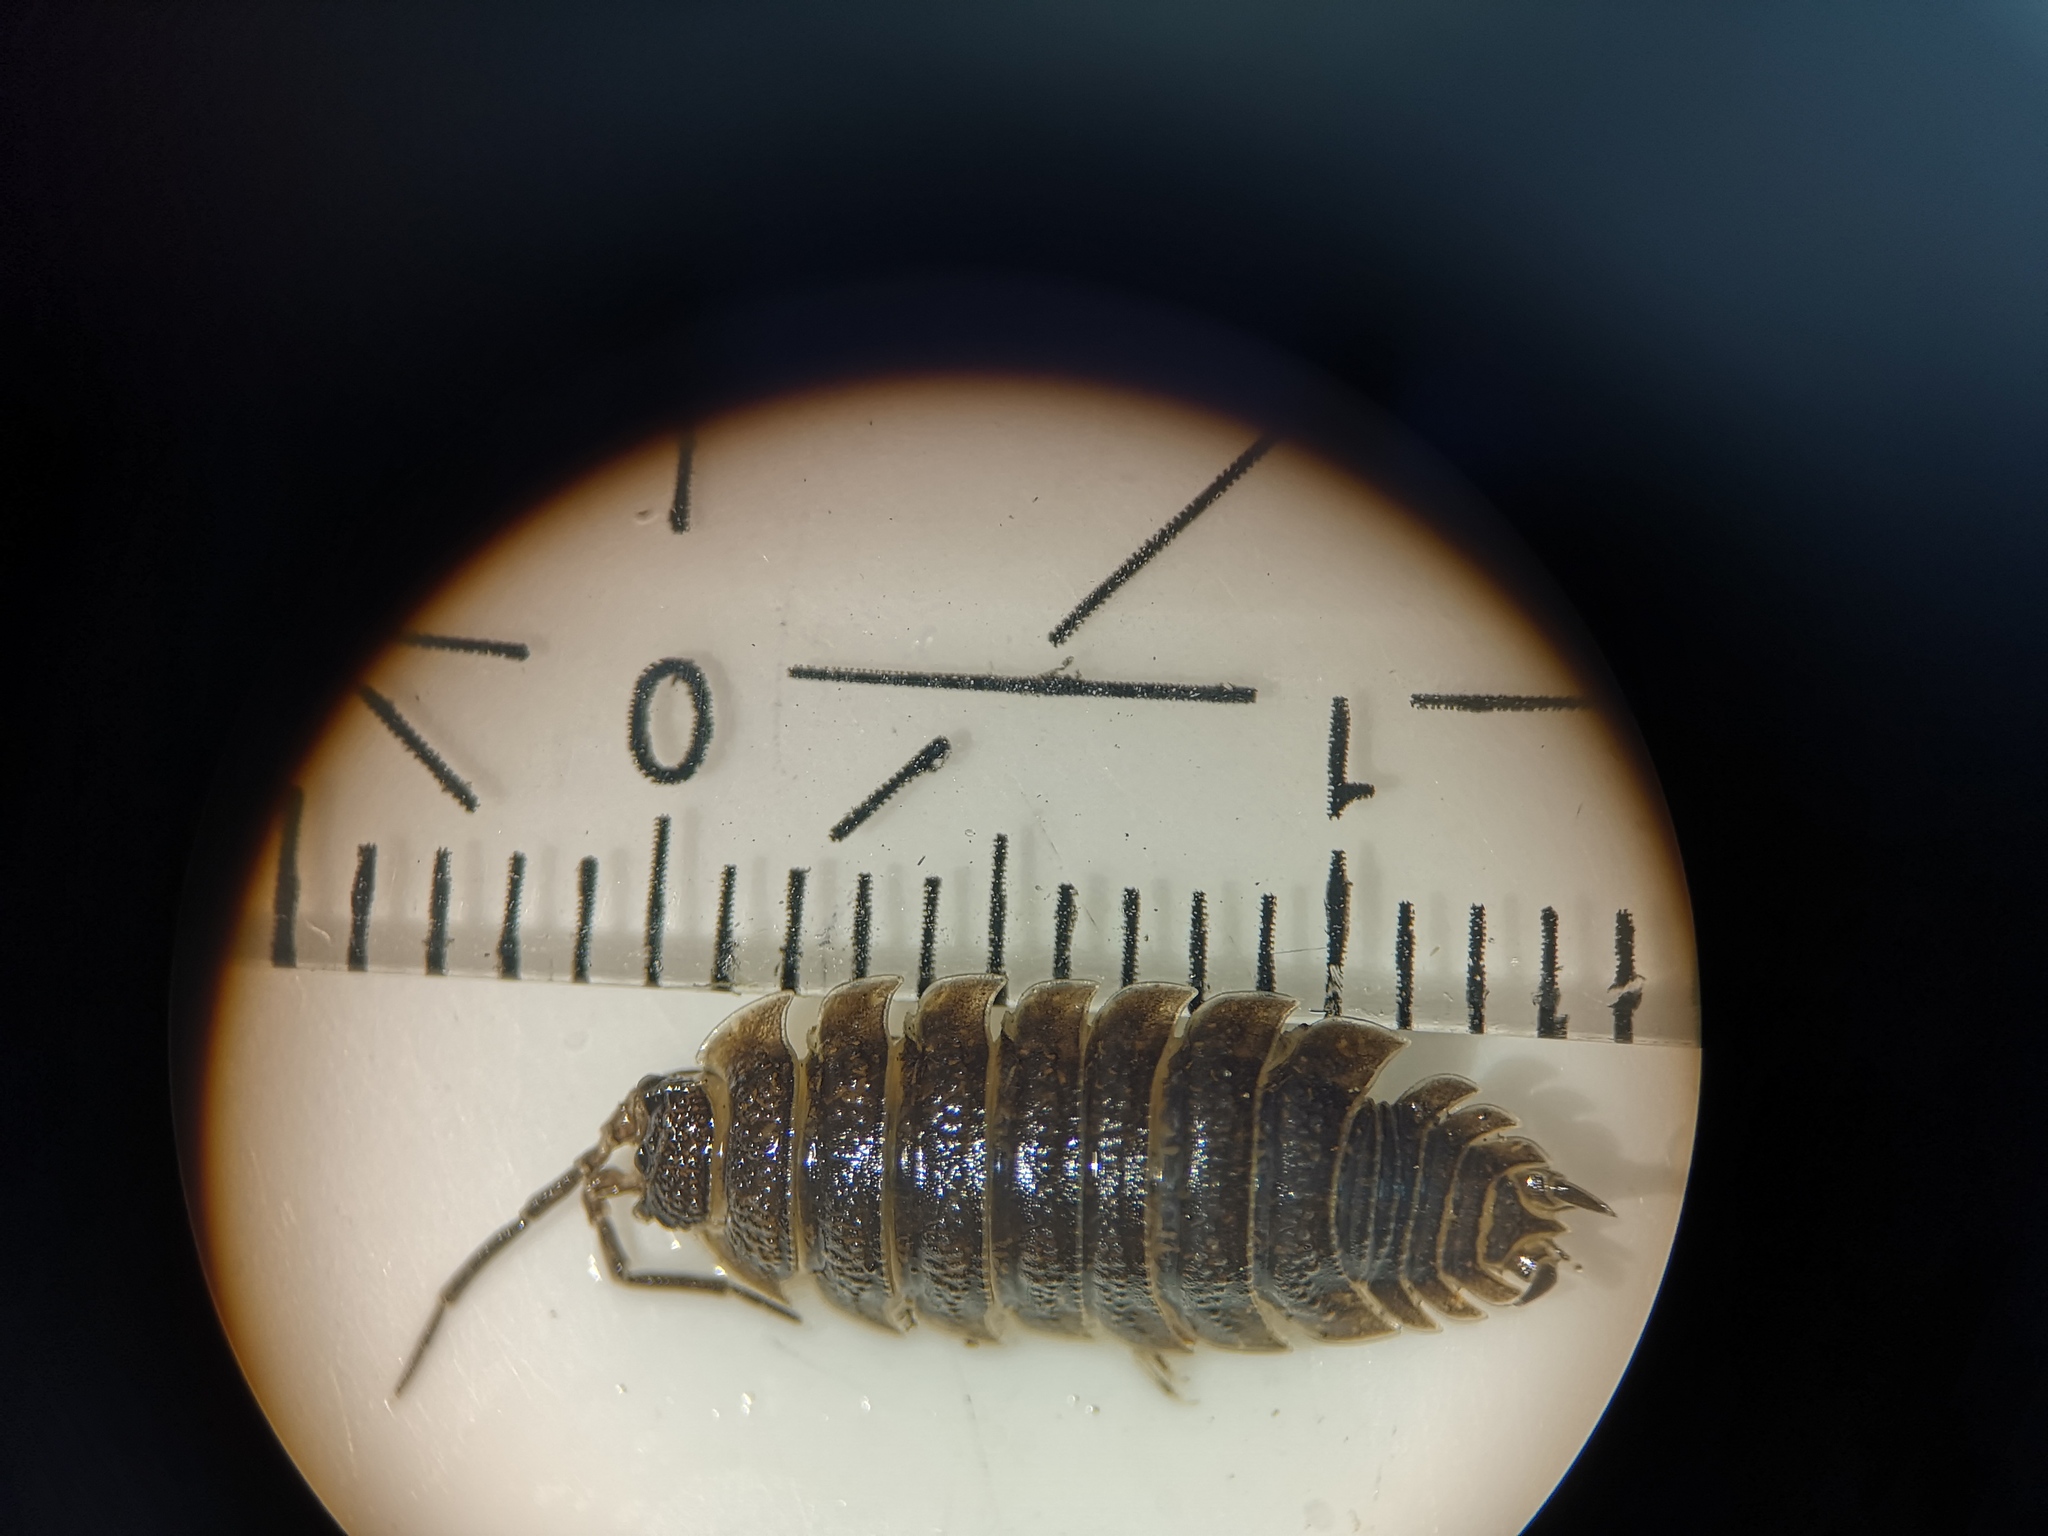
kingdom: Animalia
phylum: Arthropoda
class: Malacostraca
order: Isopoda
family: Porcellionidae
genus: Porcellio
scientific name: Porcellio scaber
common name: Common rough woodlouse
